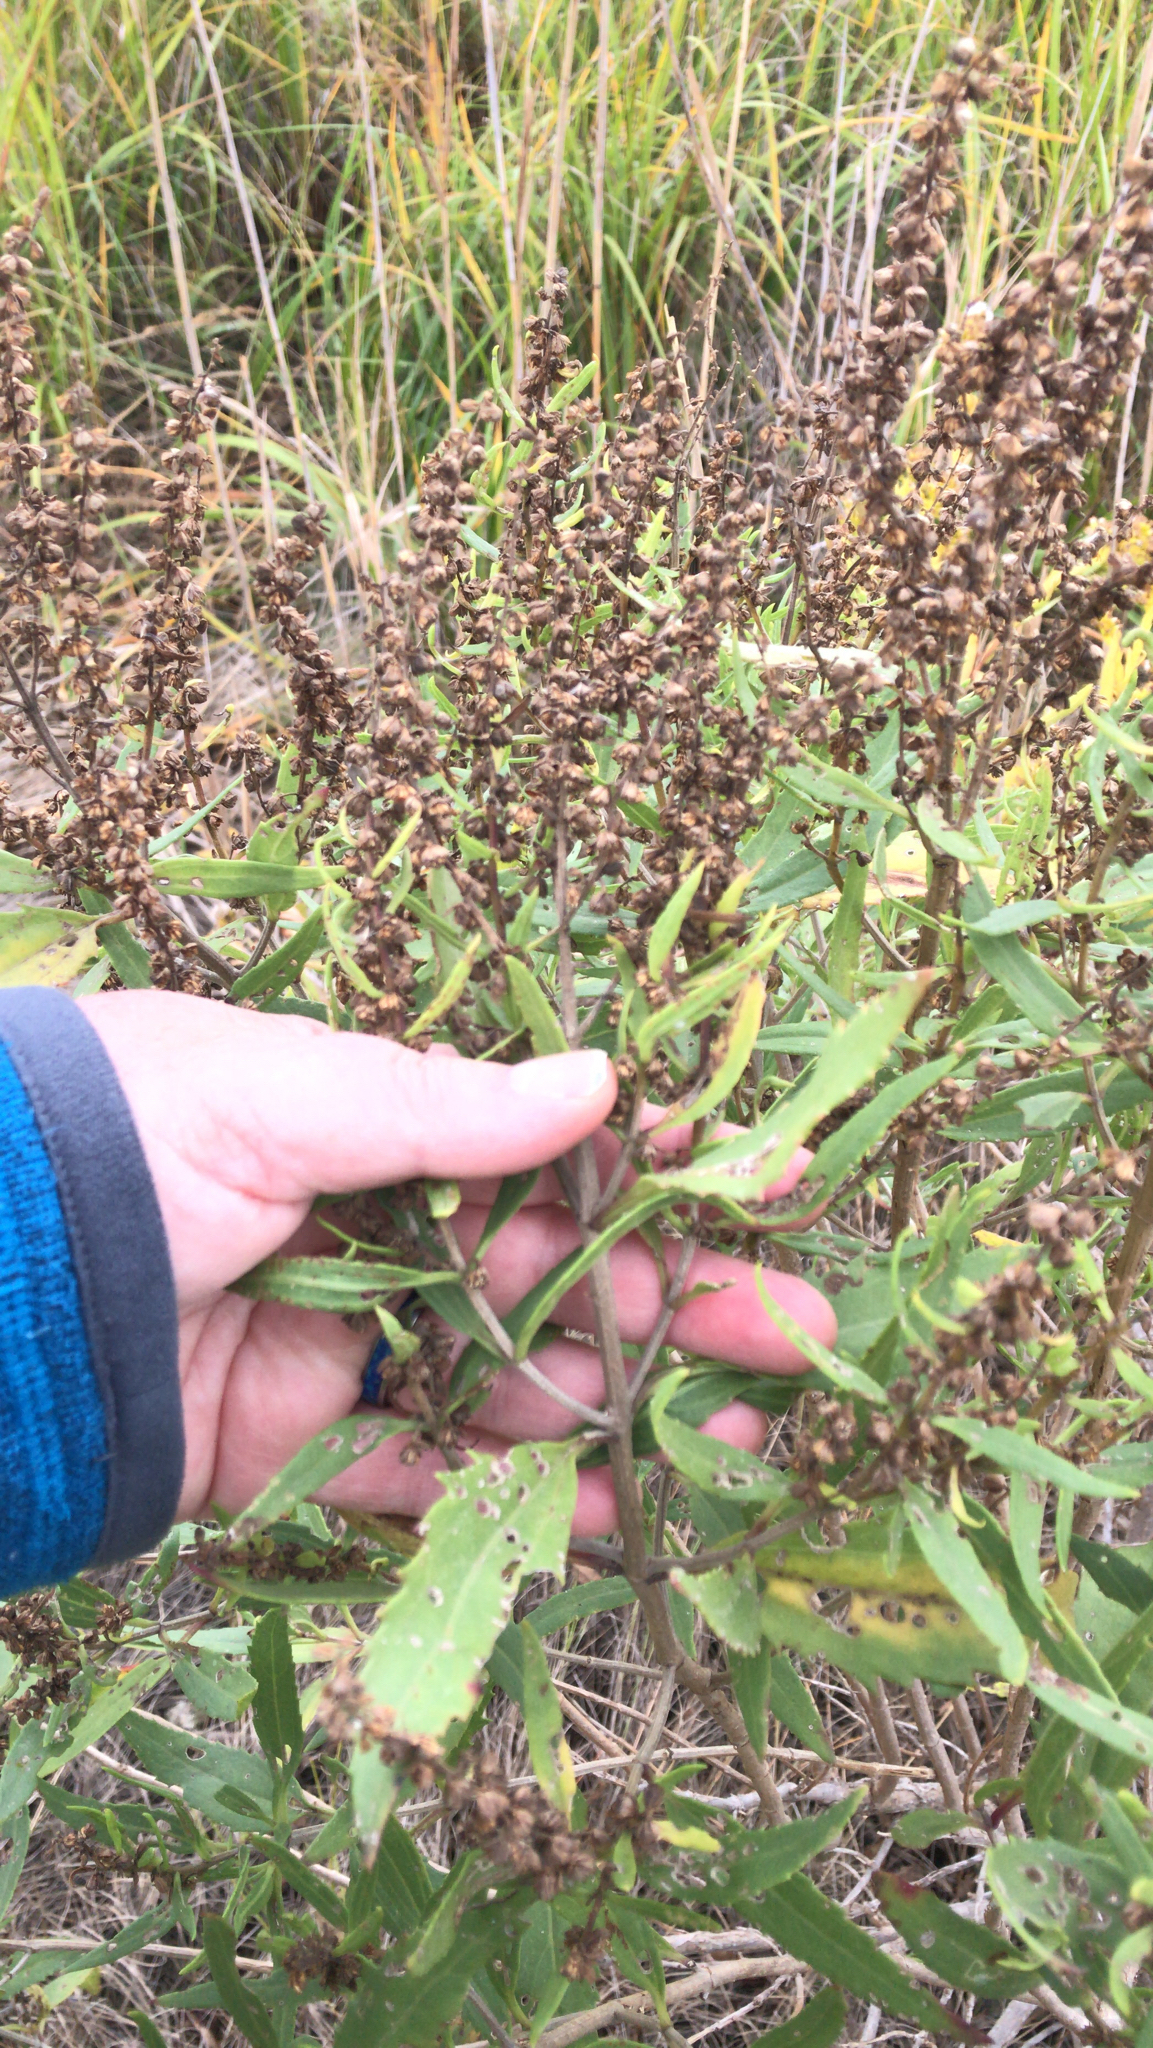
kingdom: Plantae
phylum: Tracheophyta
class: Magnoliopsida
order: Asterales
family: Asteraceae
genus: Iva
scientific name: Iva frutescens
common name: Big-leaved marsh-elder
